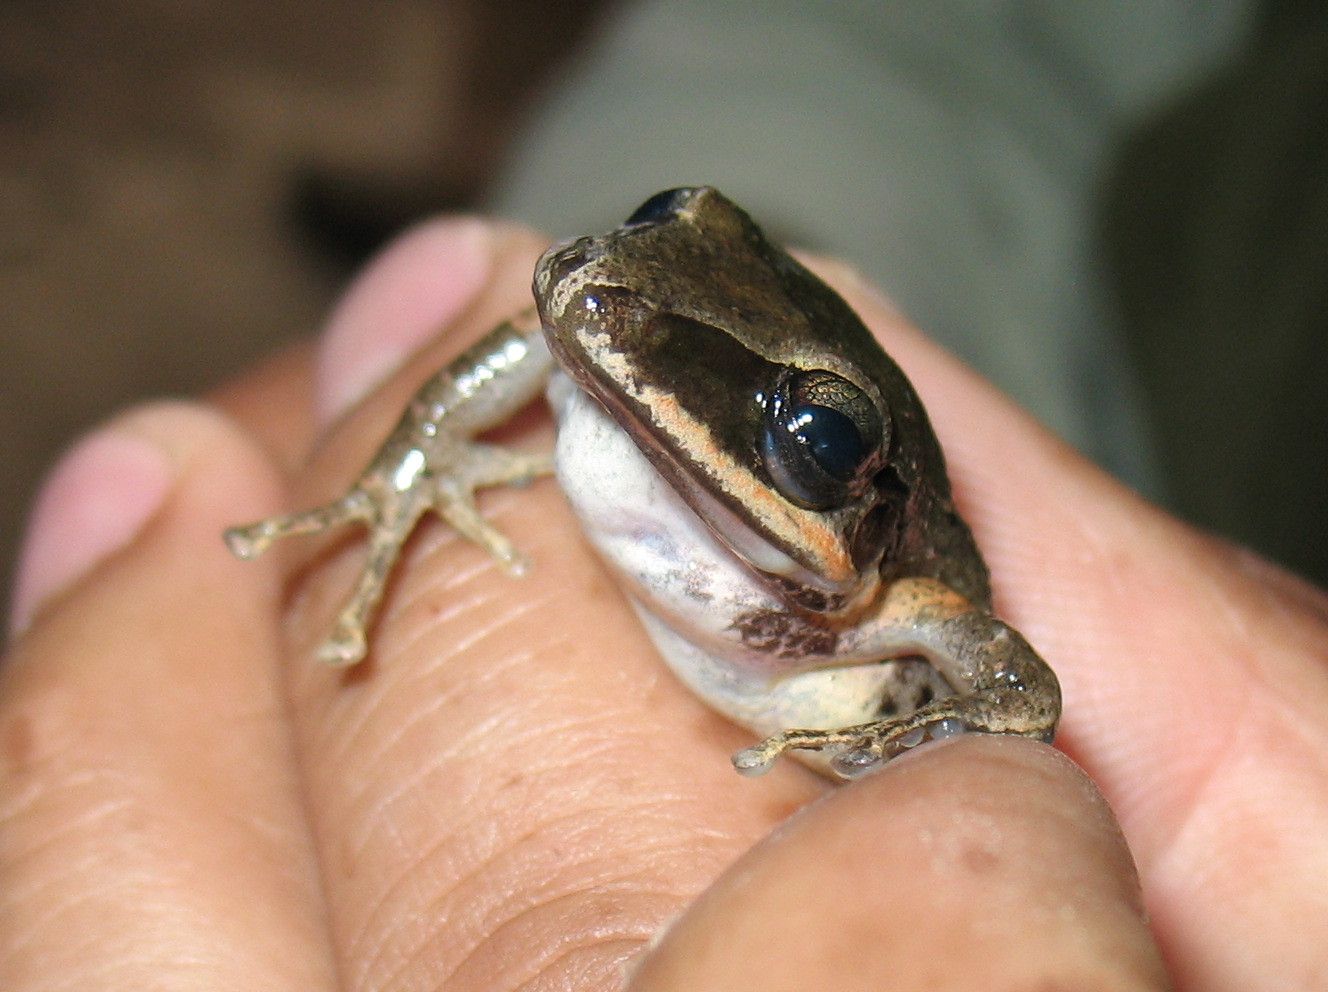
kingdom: Animalia
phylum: Chordata
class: Amphibia
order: Anura
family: Craugastoridae
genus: Pristimantis
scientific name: Pristimantis achatinus
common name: Cachabi robber frog
